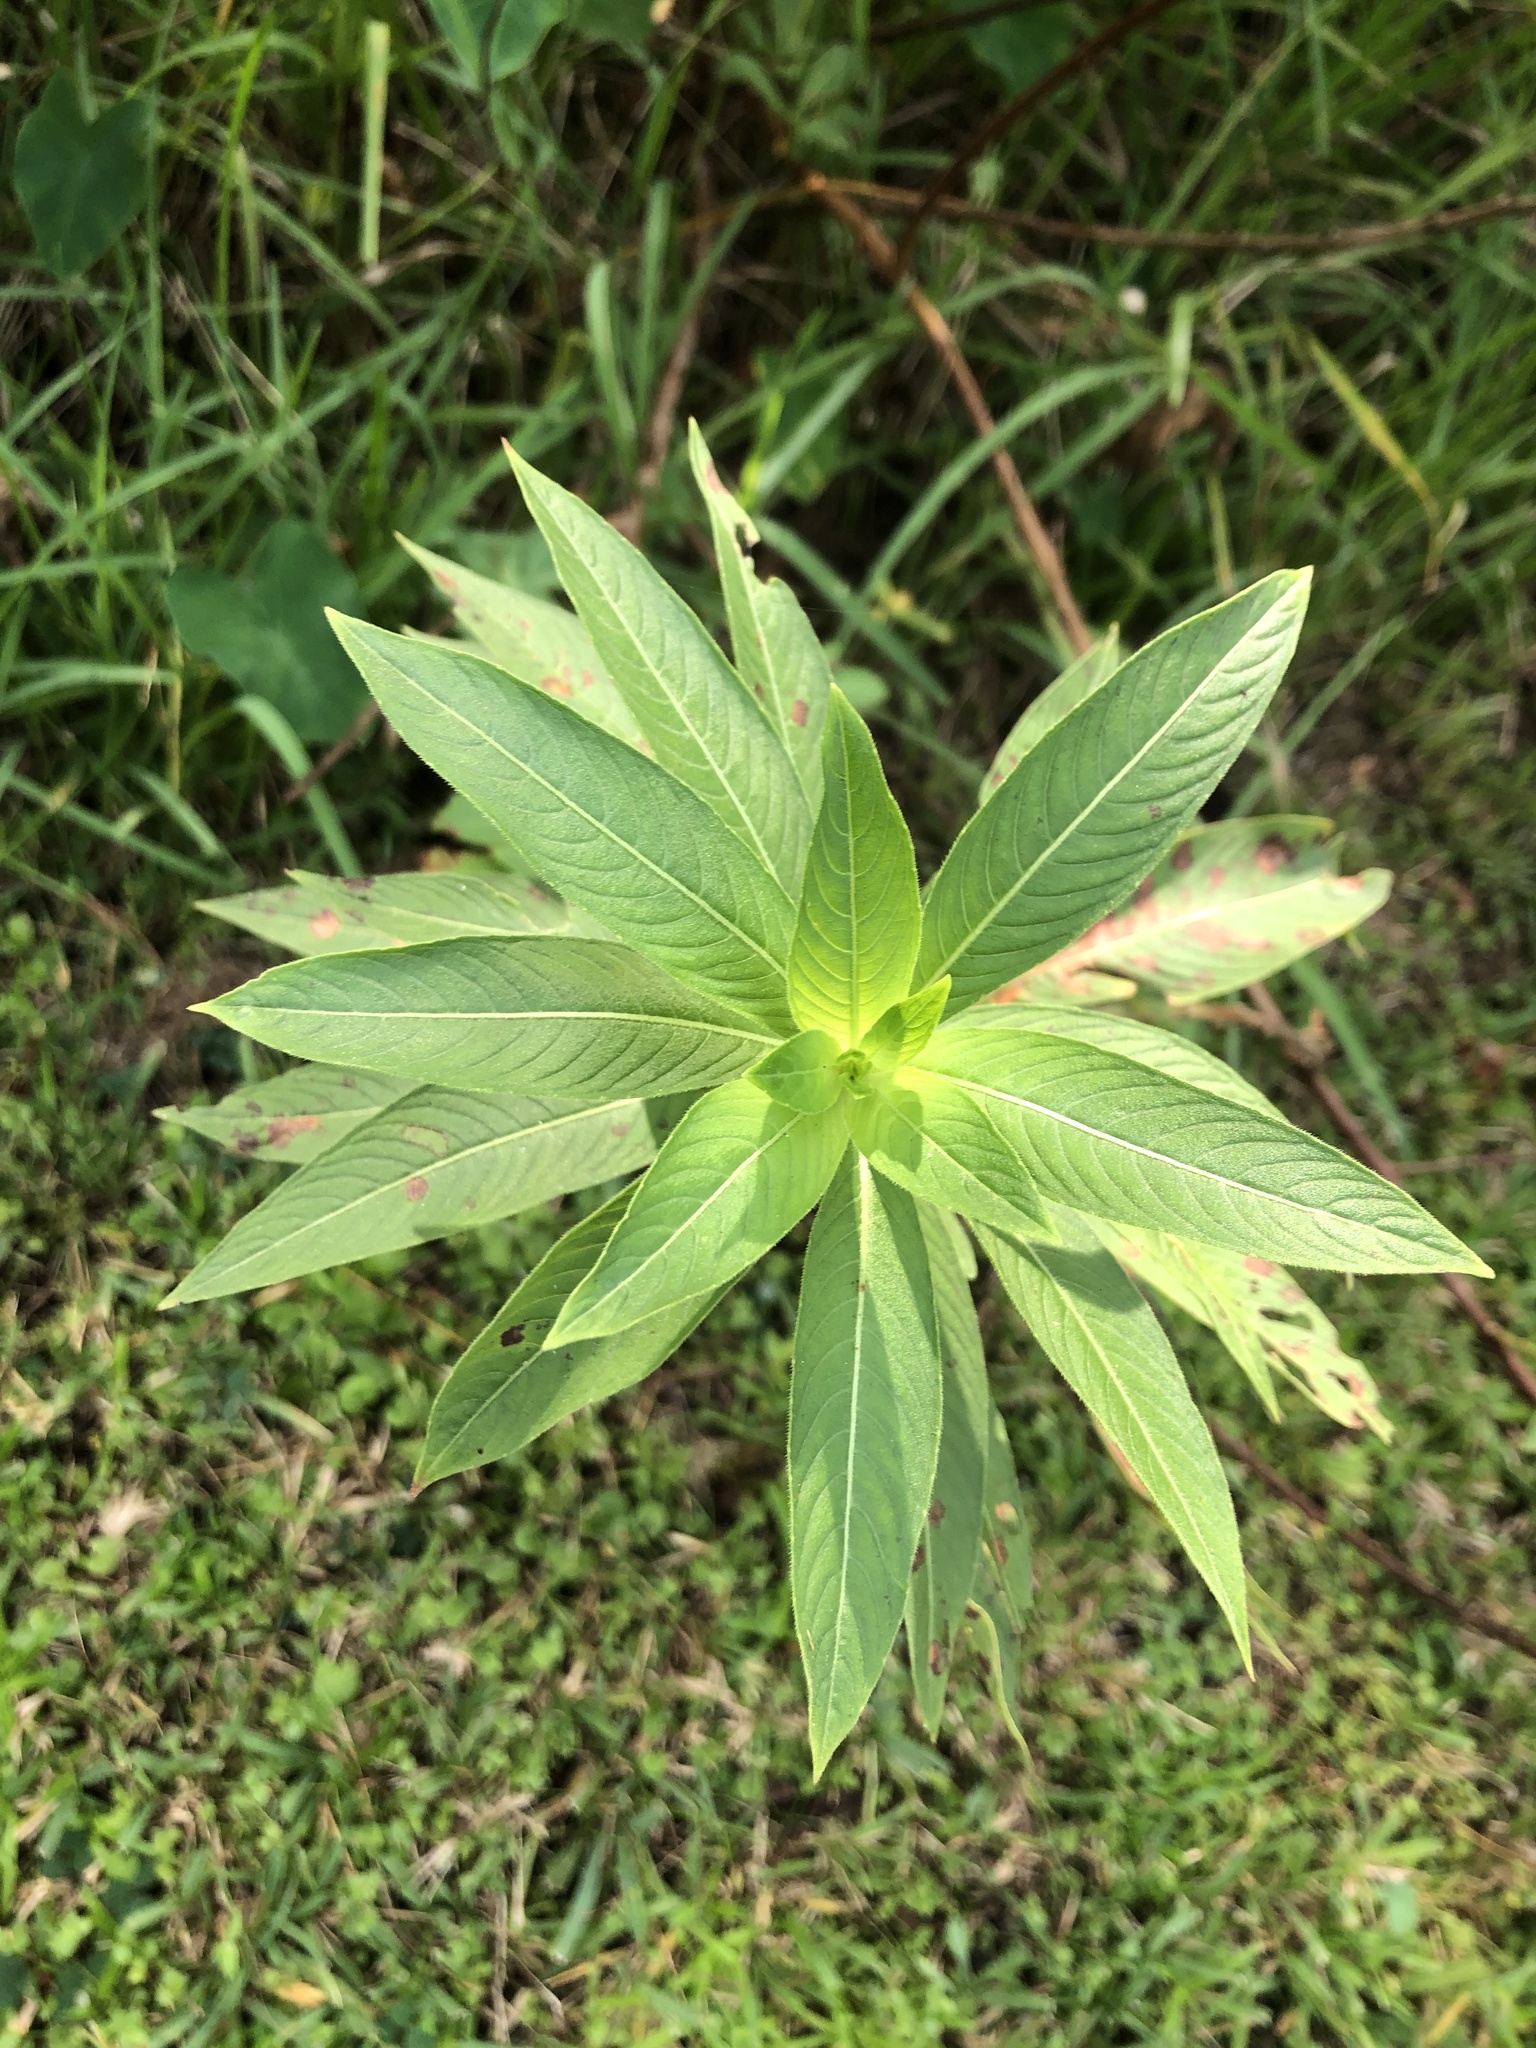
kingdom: Plantae
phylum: Tracheophyta
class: Magnoliopsida
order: Myrtales
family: Onagraceae
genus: Ludwigia
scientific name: Ludwigia peruviana
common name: Peruvian primrose-willow
